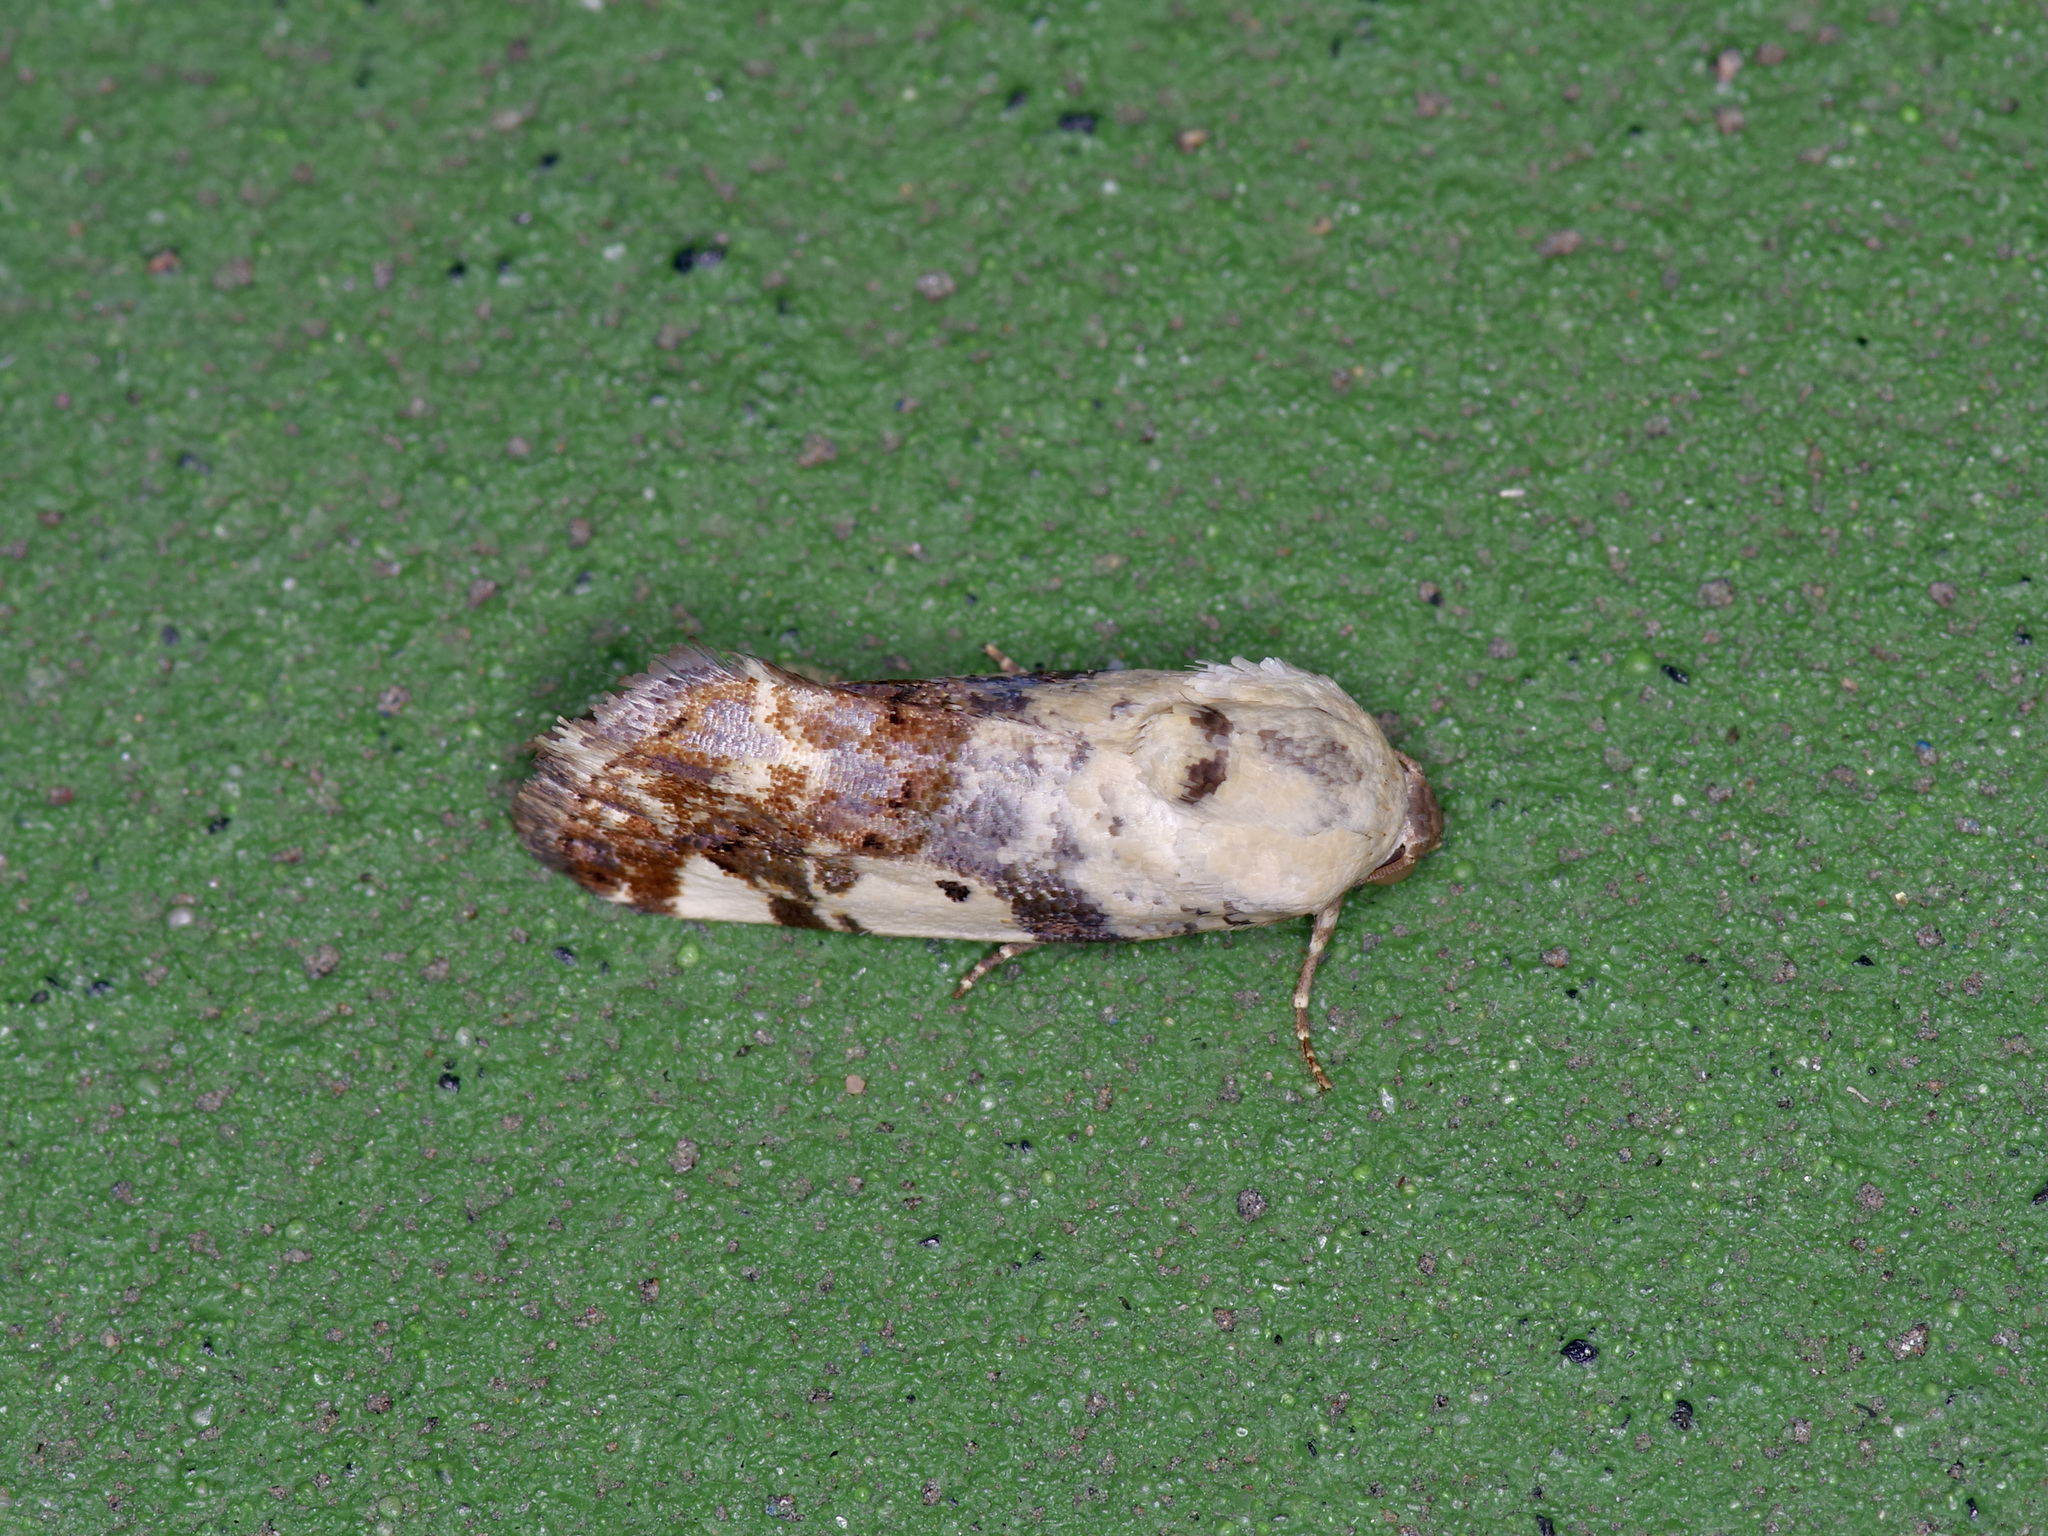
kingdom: Animalia
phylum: Arthropoda
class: Insecta
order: Lepidoptera
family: Noctuidae
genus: Acontia
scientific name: Acontia aprica
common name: Nun
